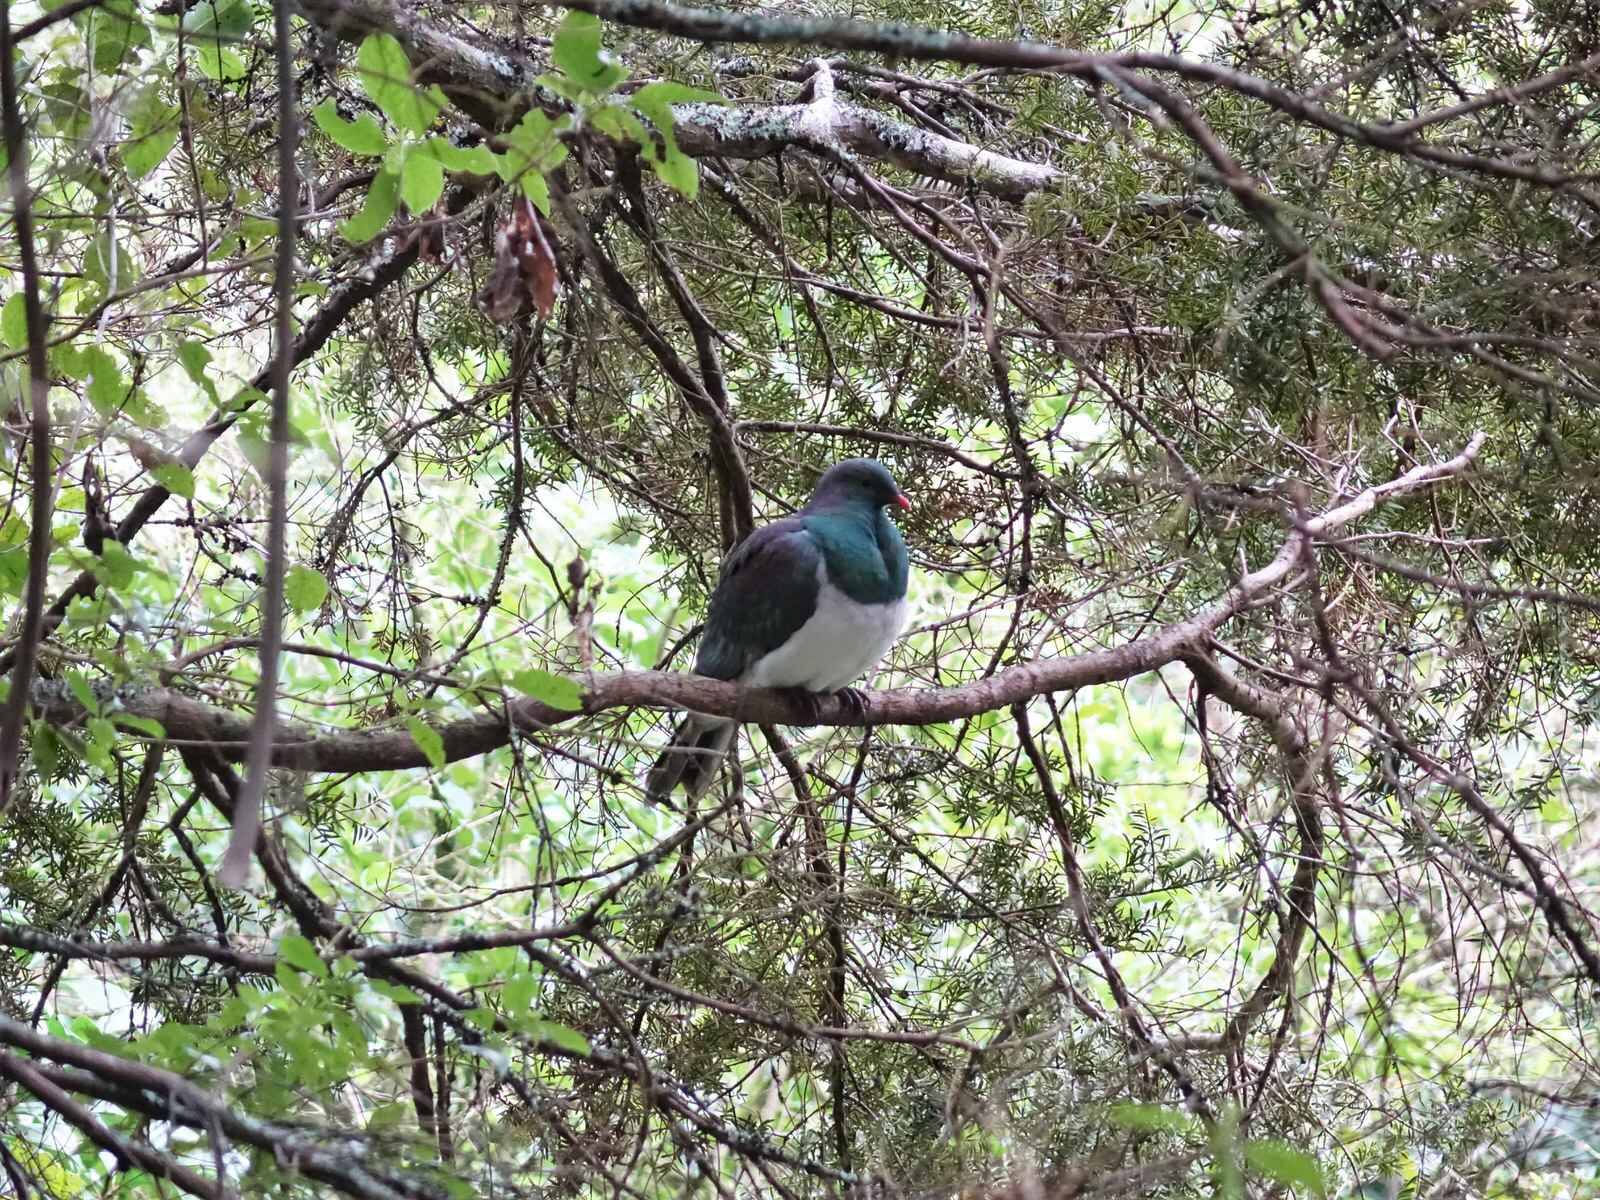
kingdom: Animalia
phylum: Chordata
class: Aves
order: Columbiformes
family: Columbidae
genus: Hemiphaga
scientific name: Hemiphaga novaeseelandiae
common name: New zealand pigeon
